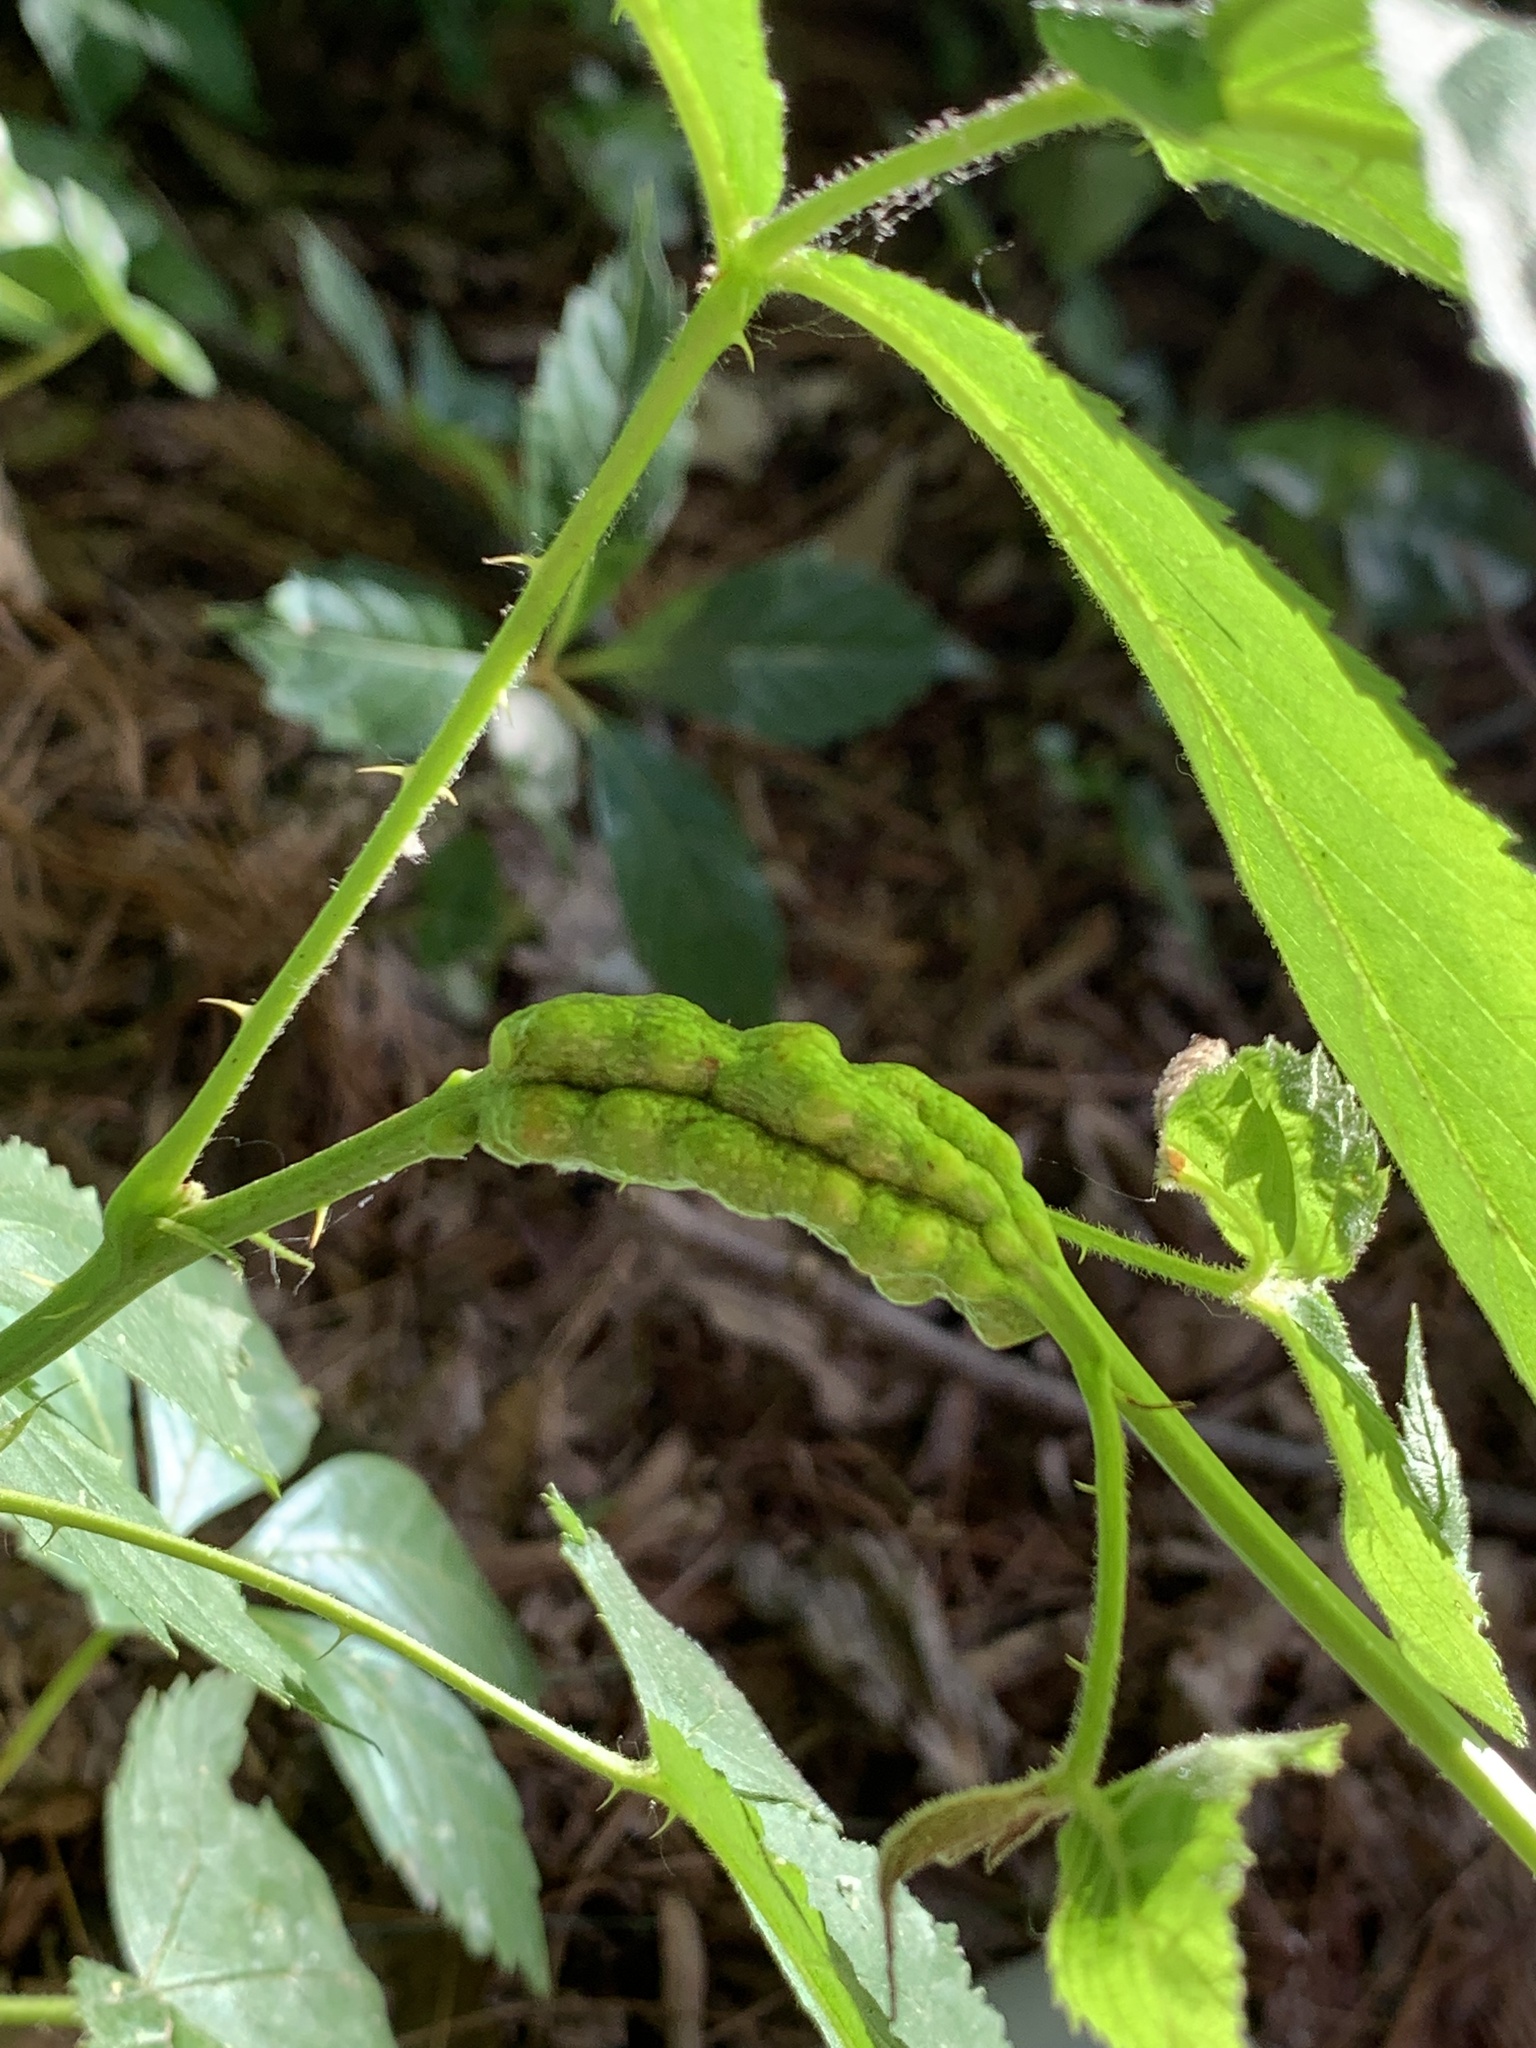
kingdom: Animalia
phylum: Arthropoda
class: Insecta
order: Hymenoptera
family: Cynipidae
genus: Diastrophus
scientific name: Diastrophus
